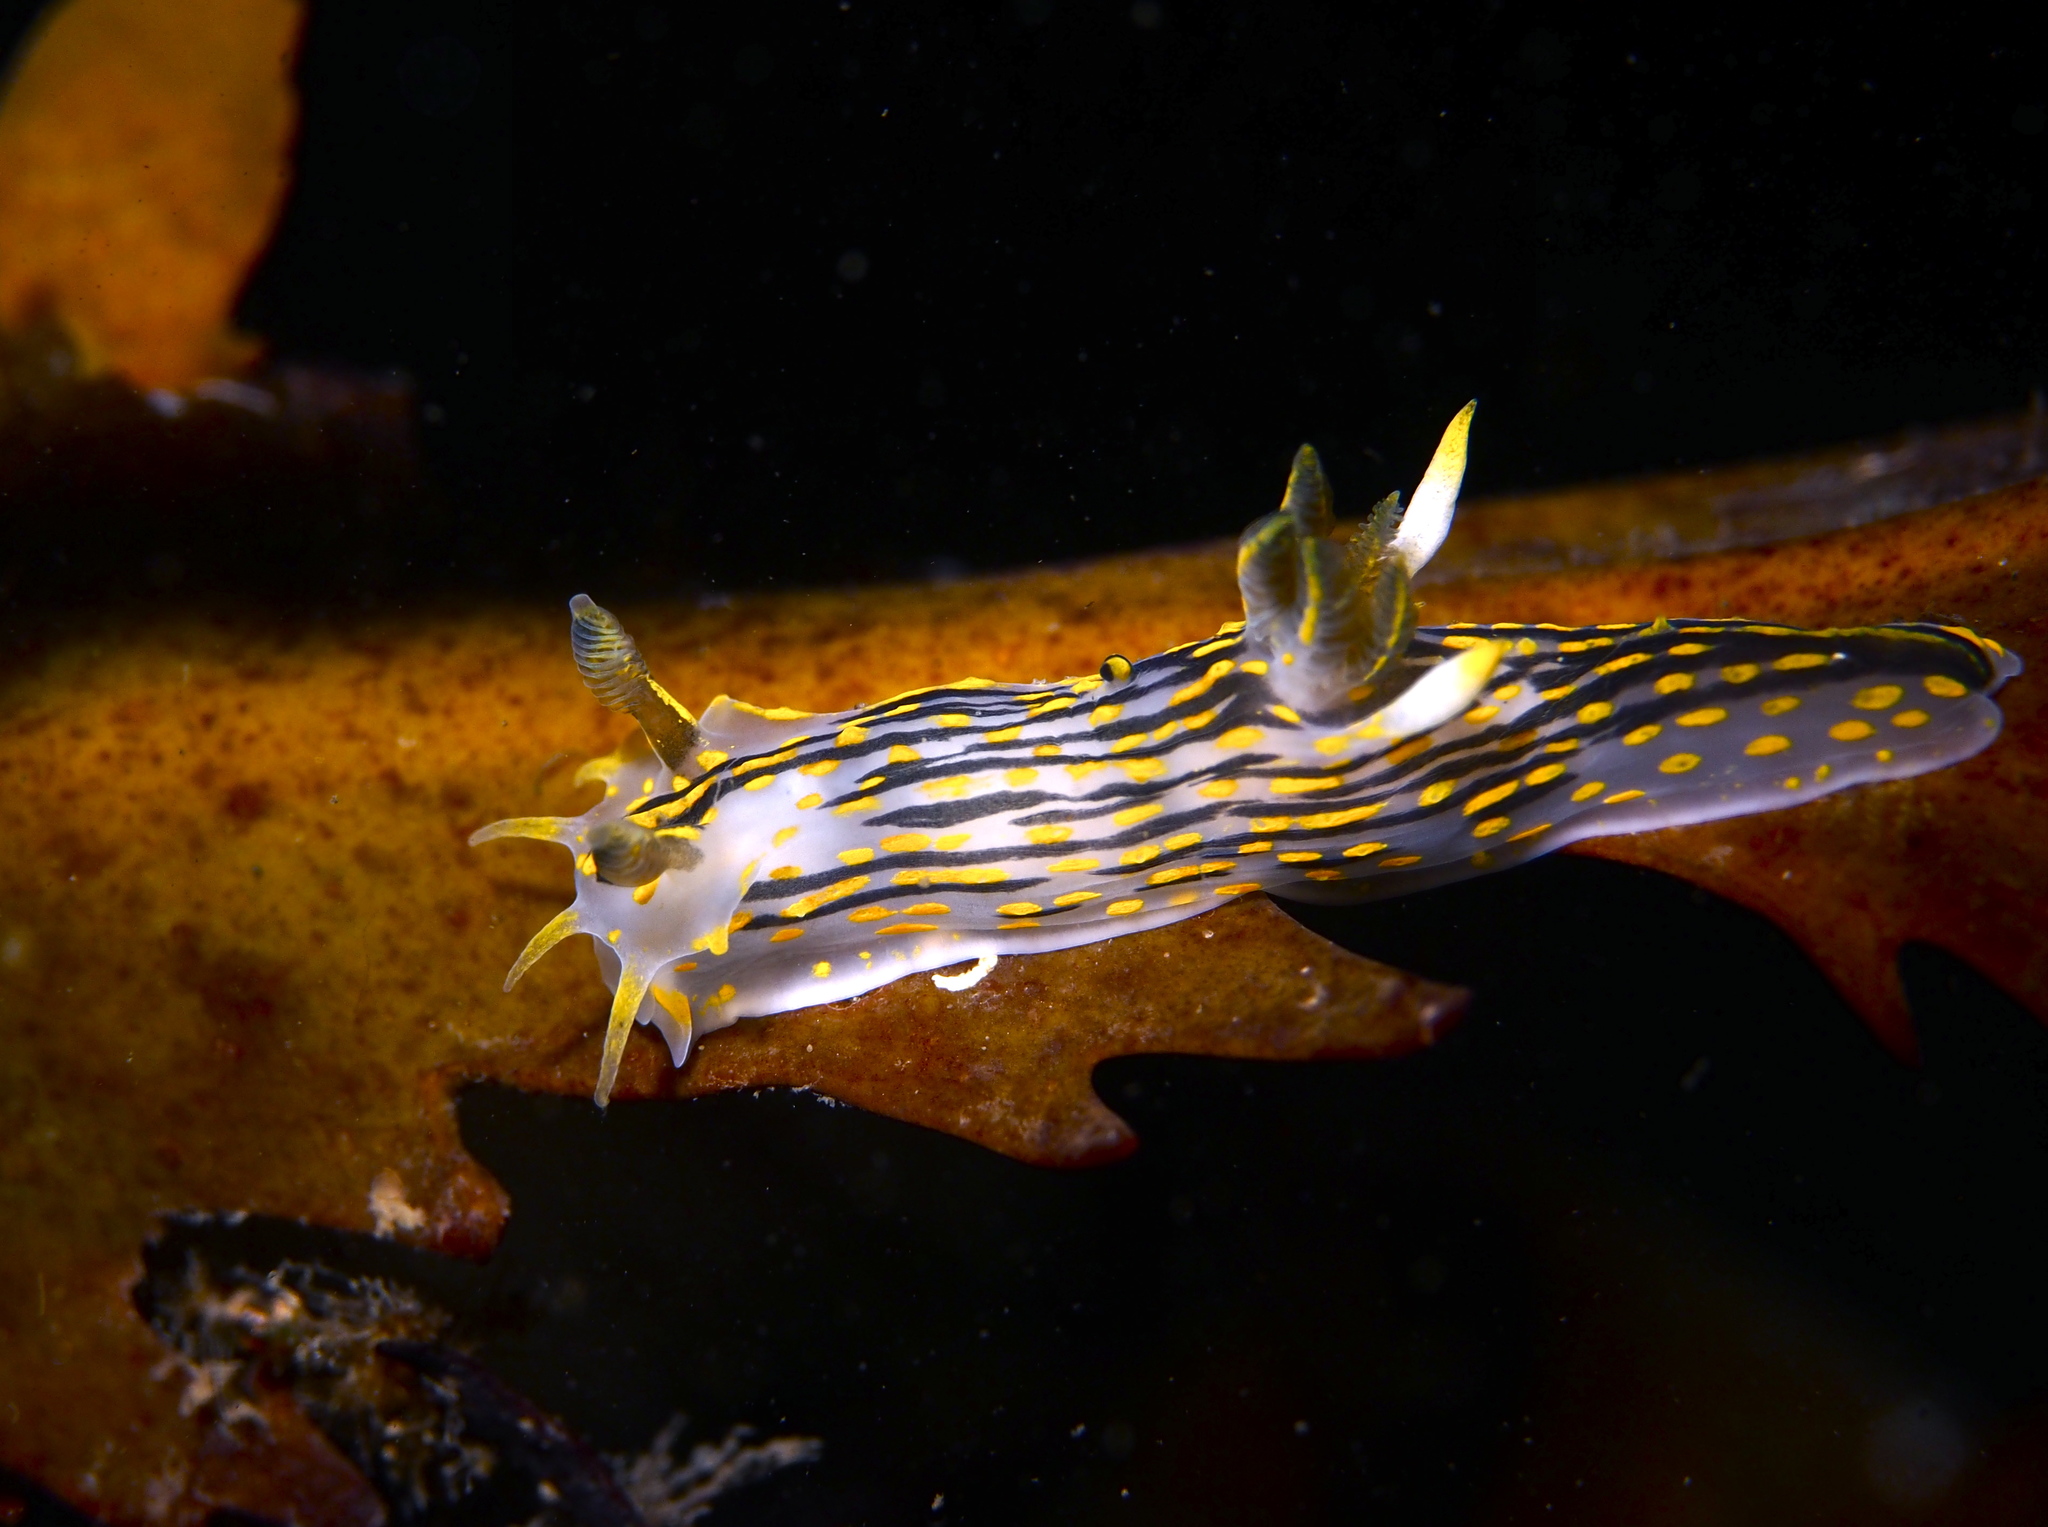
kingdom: Animalia
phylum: Mollusca
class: Gastropoda
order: Nudibranchia
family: Polyceridae
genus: Polycera
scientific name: Polycera quadrilineata
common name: Four-striped polycera
